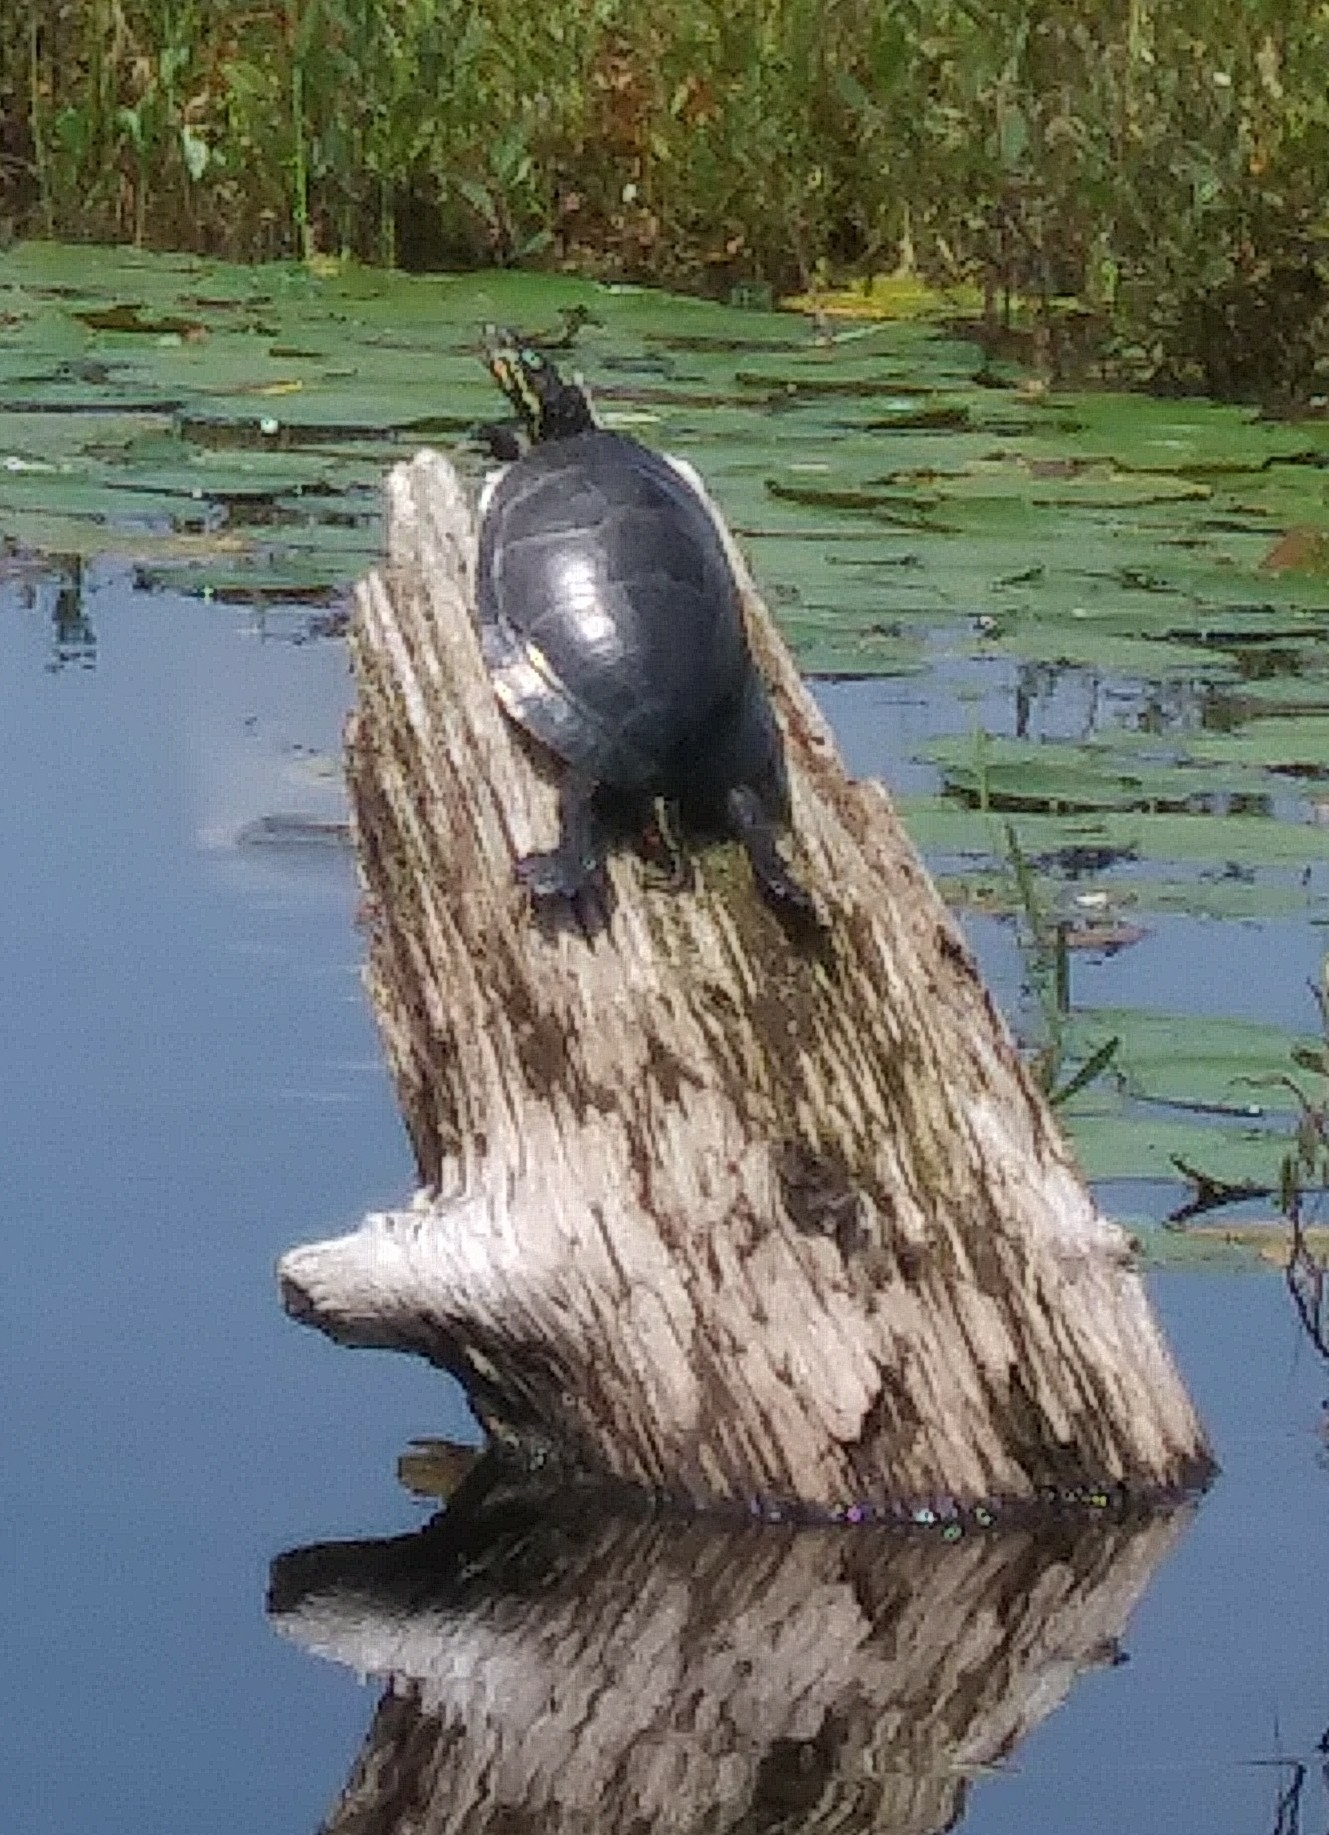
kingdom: Animalia
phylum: Chordata
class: Testudines
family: Emydidae
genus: Chrysemys
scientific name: Chrysemys picta
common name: Painted turtle
